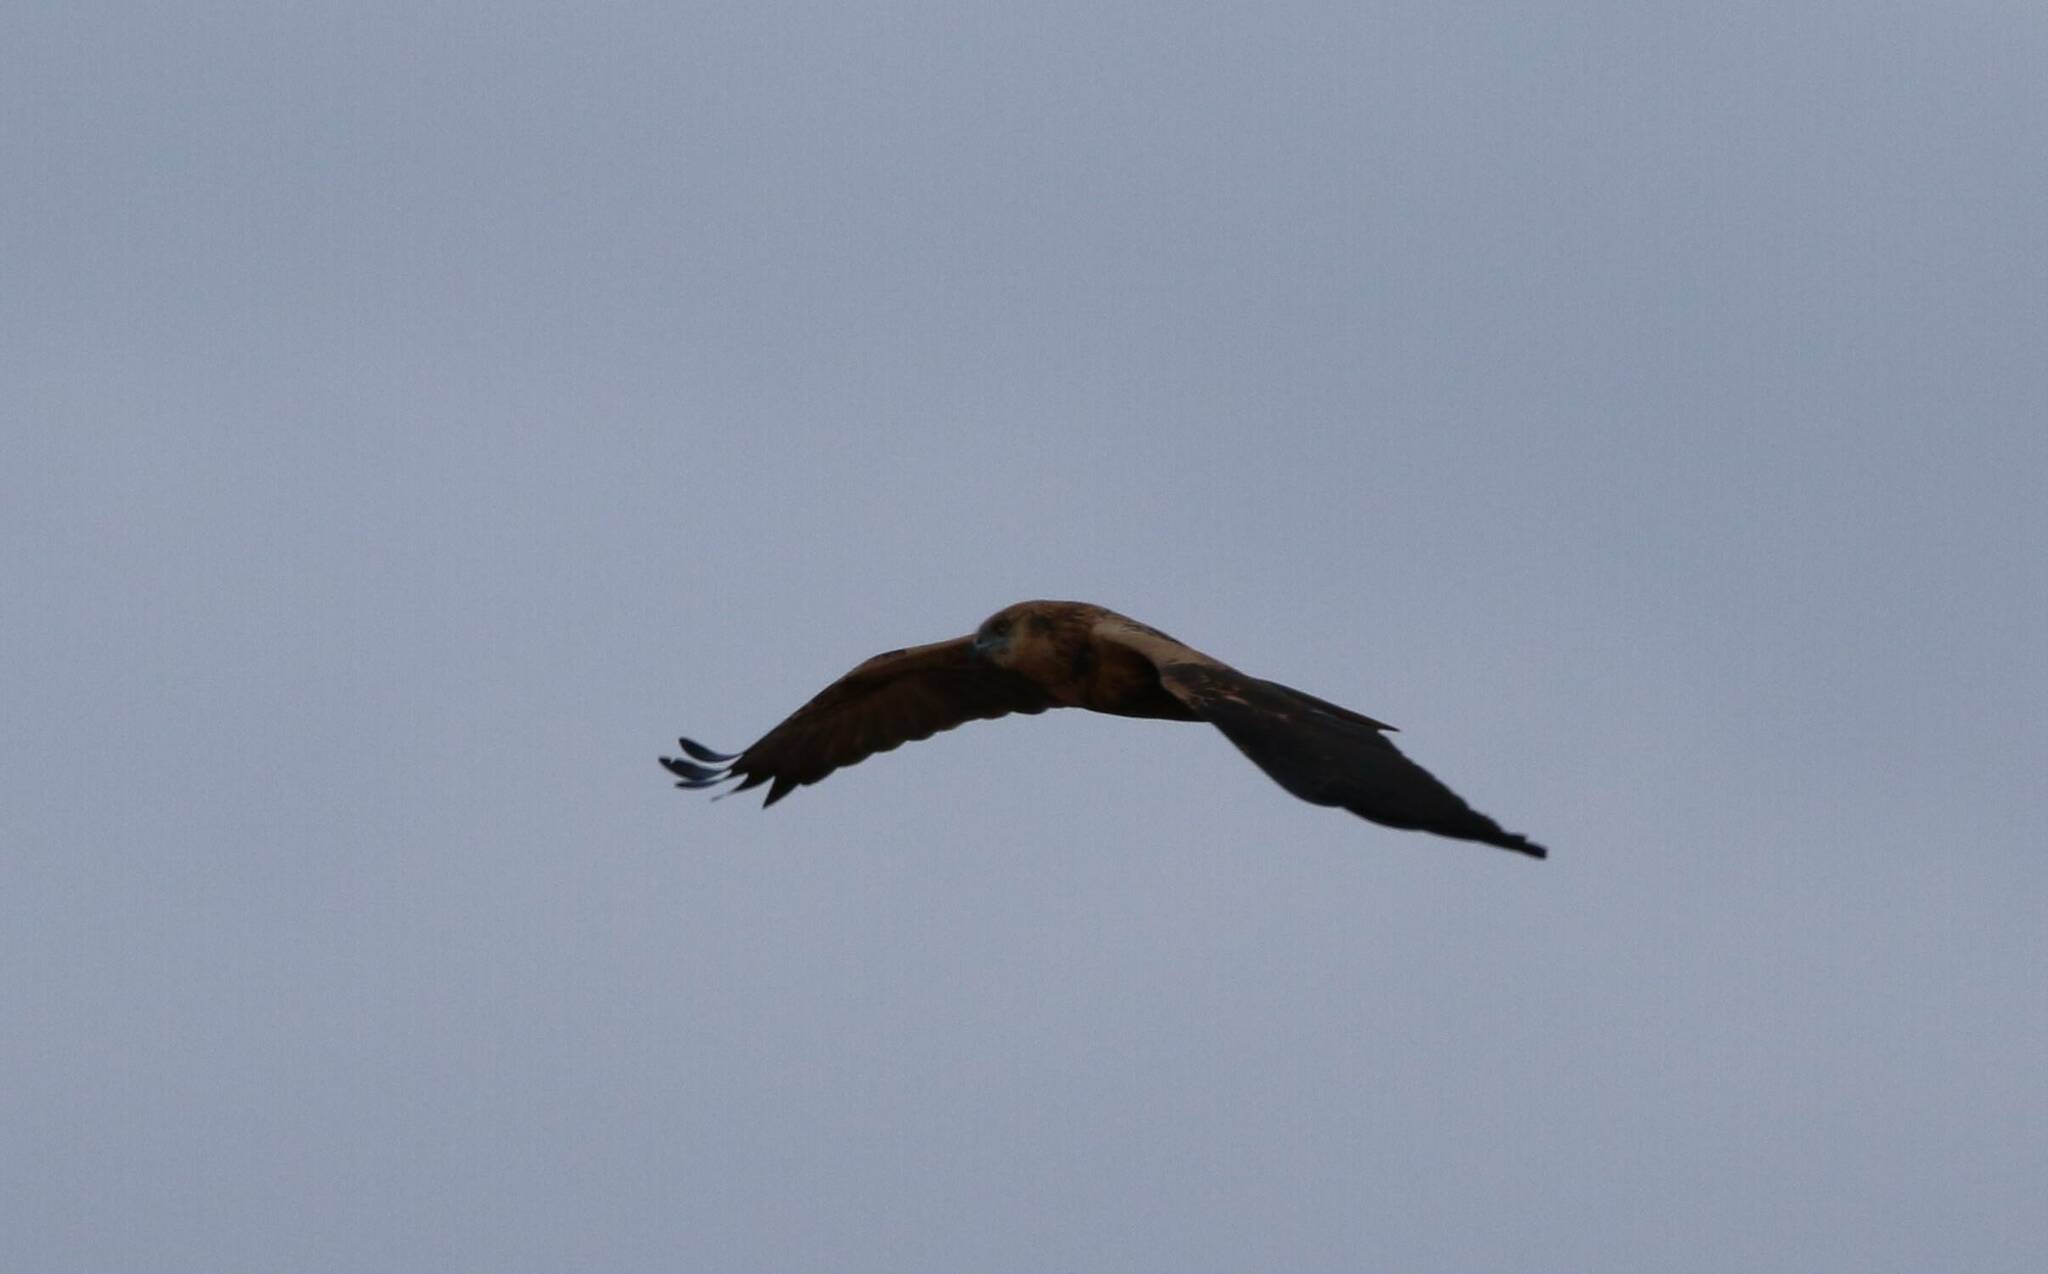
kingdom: Animalia
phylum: Chordata
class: Aves
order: Accipitriformes
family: Accipitridae
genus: Circus
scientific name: Circus aeruginosus
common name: Western marsh harrier
